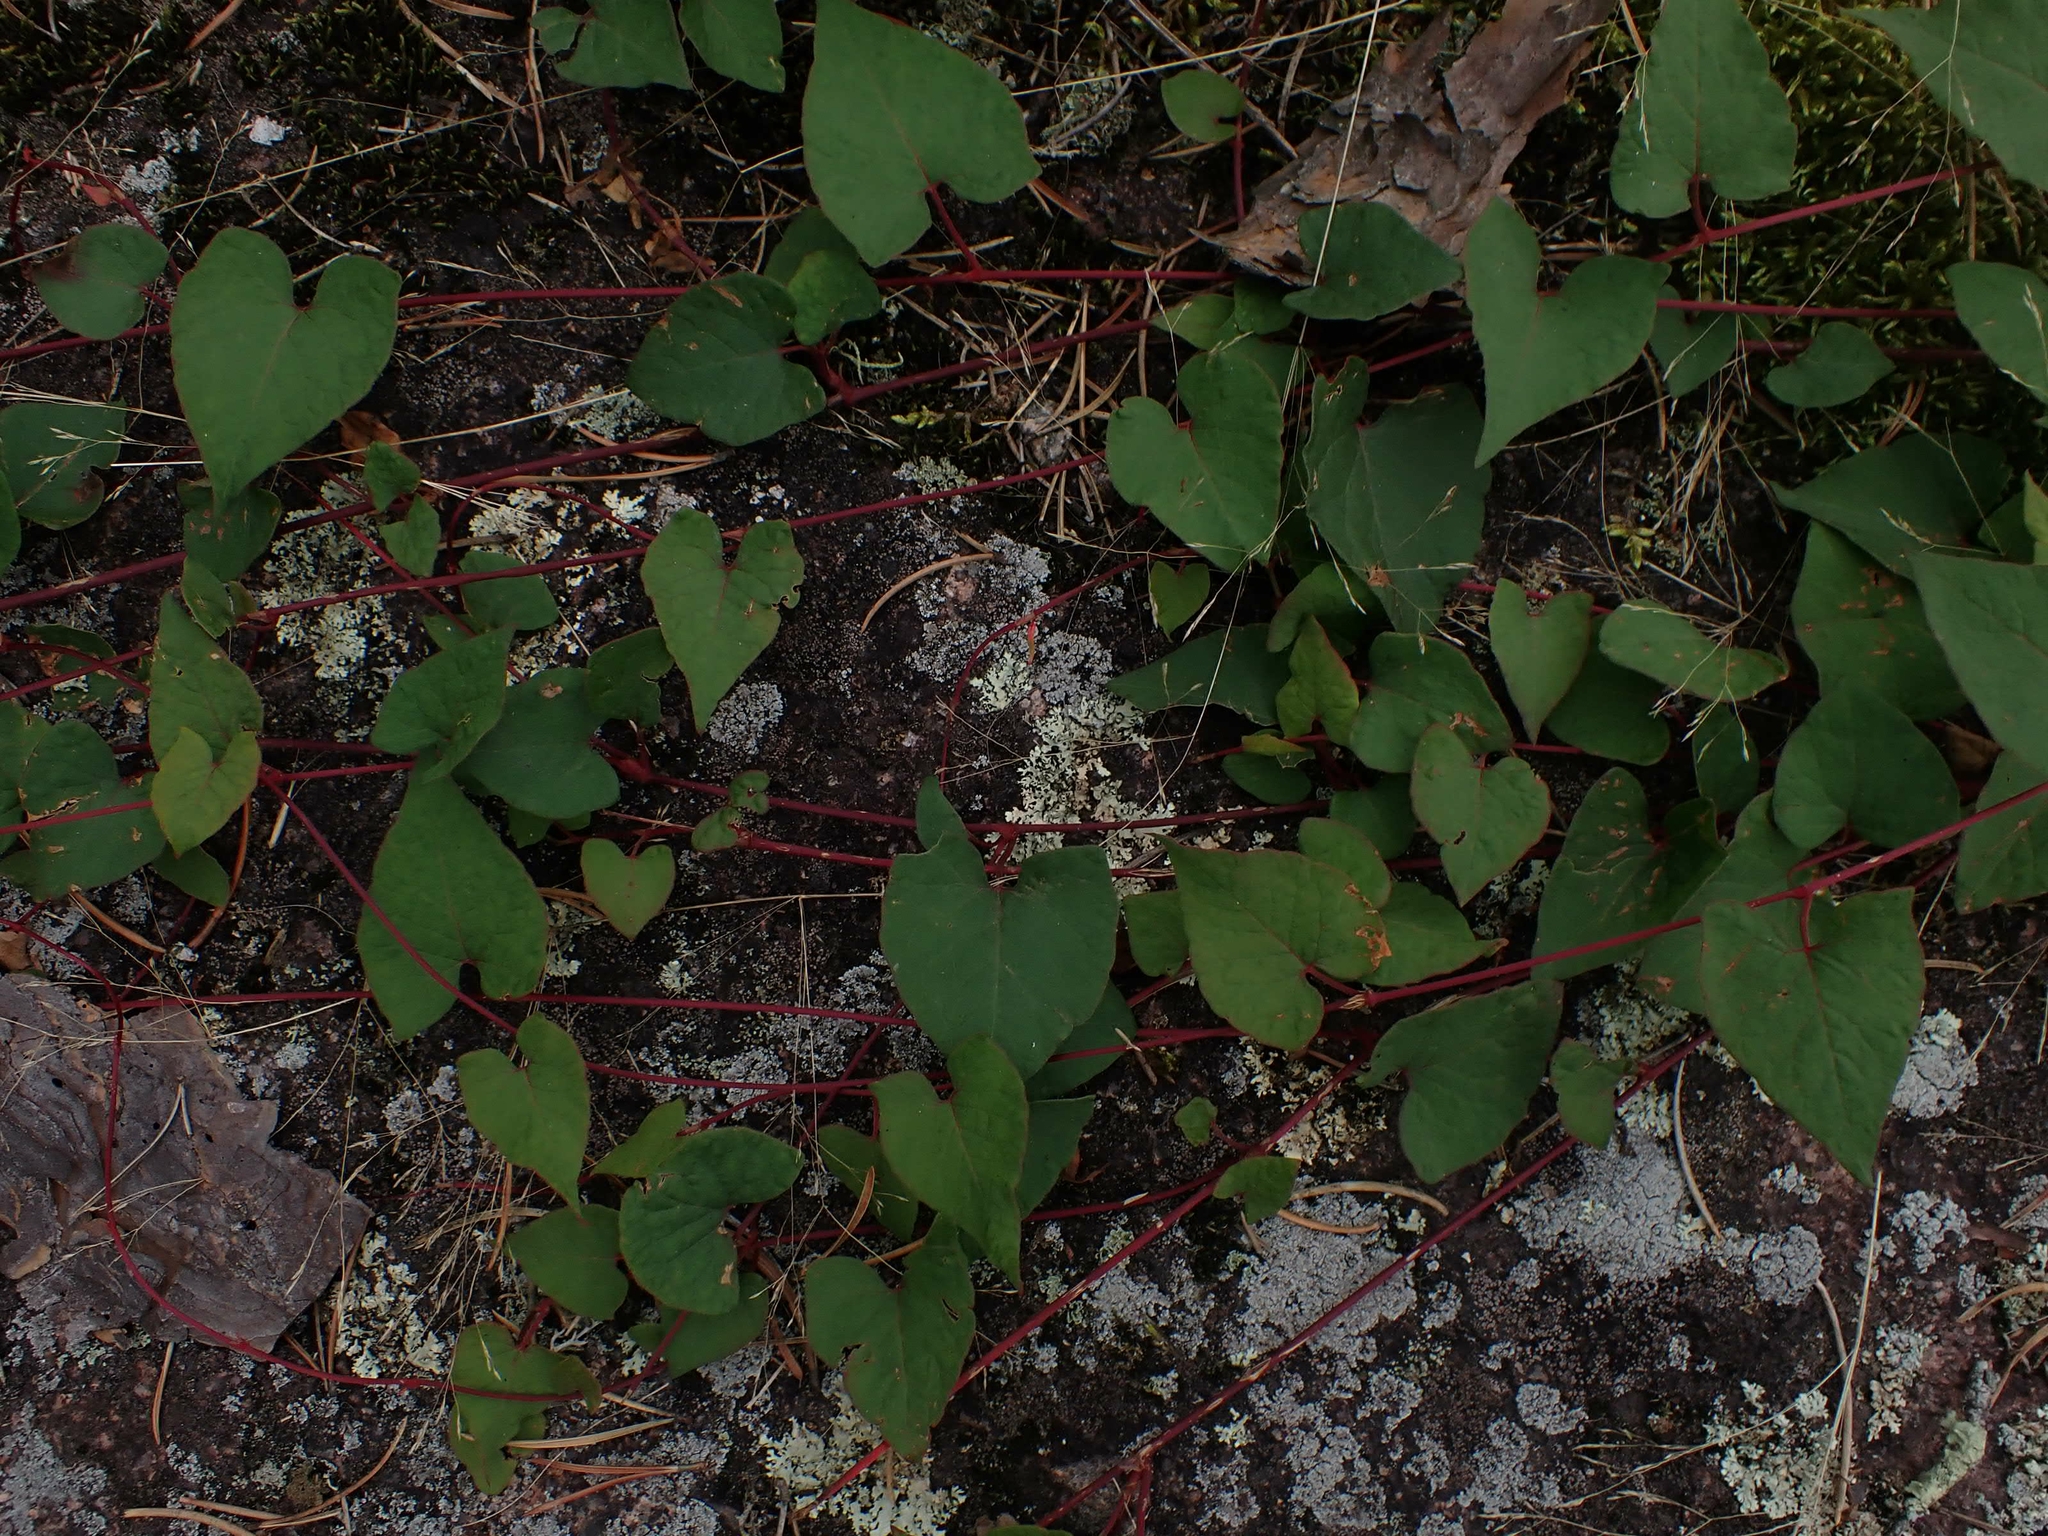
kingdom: Plantae
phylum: Tracheophyta
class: Magnoliopsida
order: Caryophyllales
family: Polygonaceae
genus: Parogonum
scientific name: Parogonum ciliinode
